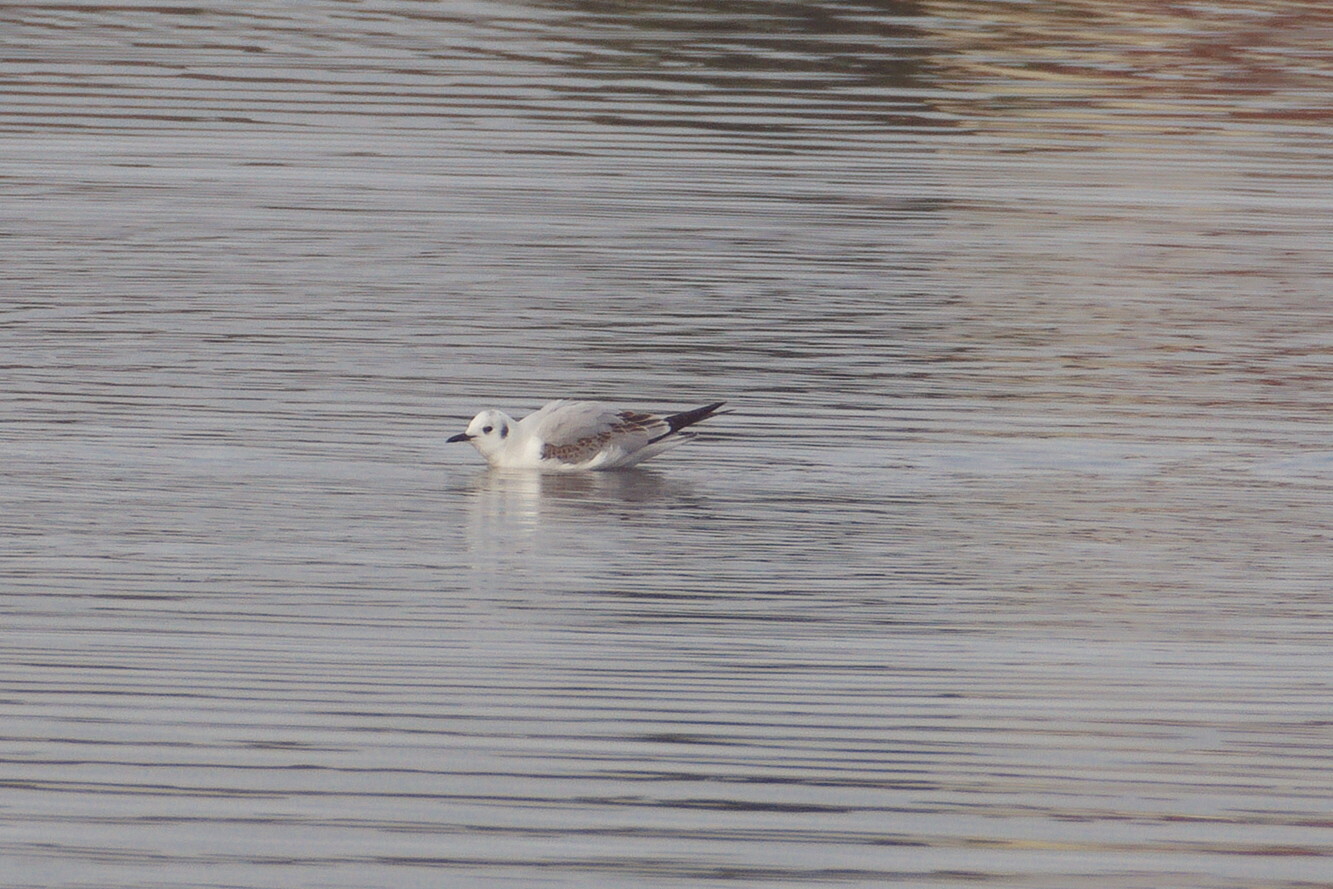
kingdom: Animalia
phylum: Chordata
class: Aves
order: Charadriiformes
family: Laridae
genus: Chroicocephalus
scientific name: Chroicocephalus philadelphia
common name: Bonaparte's gull
